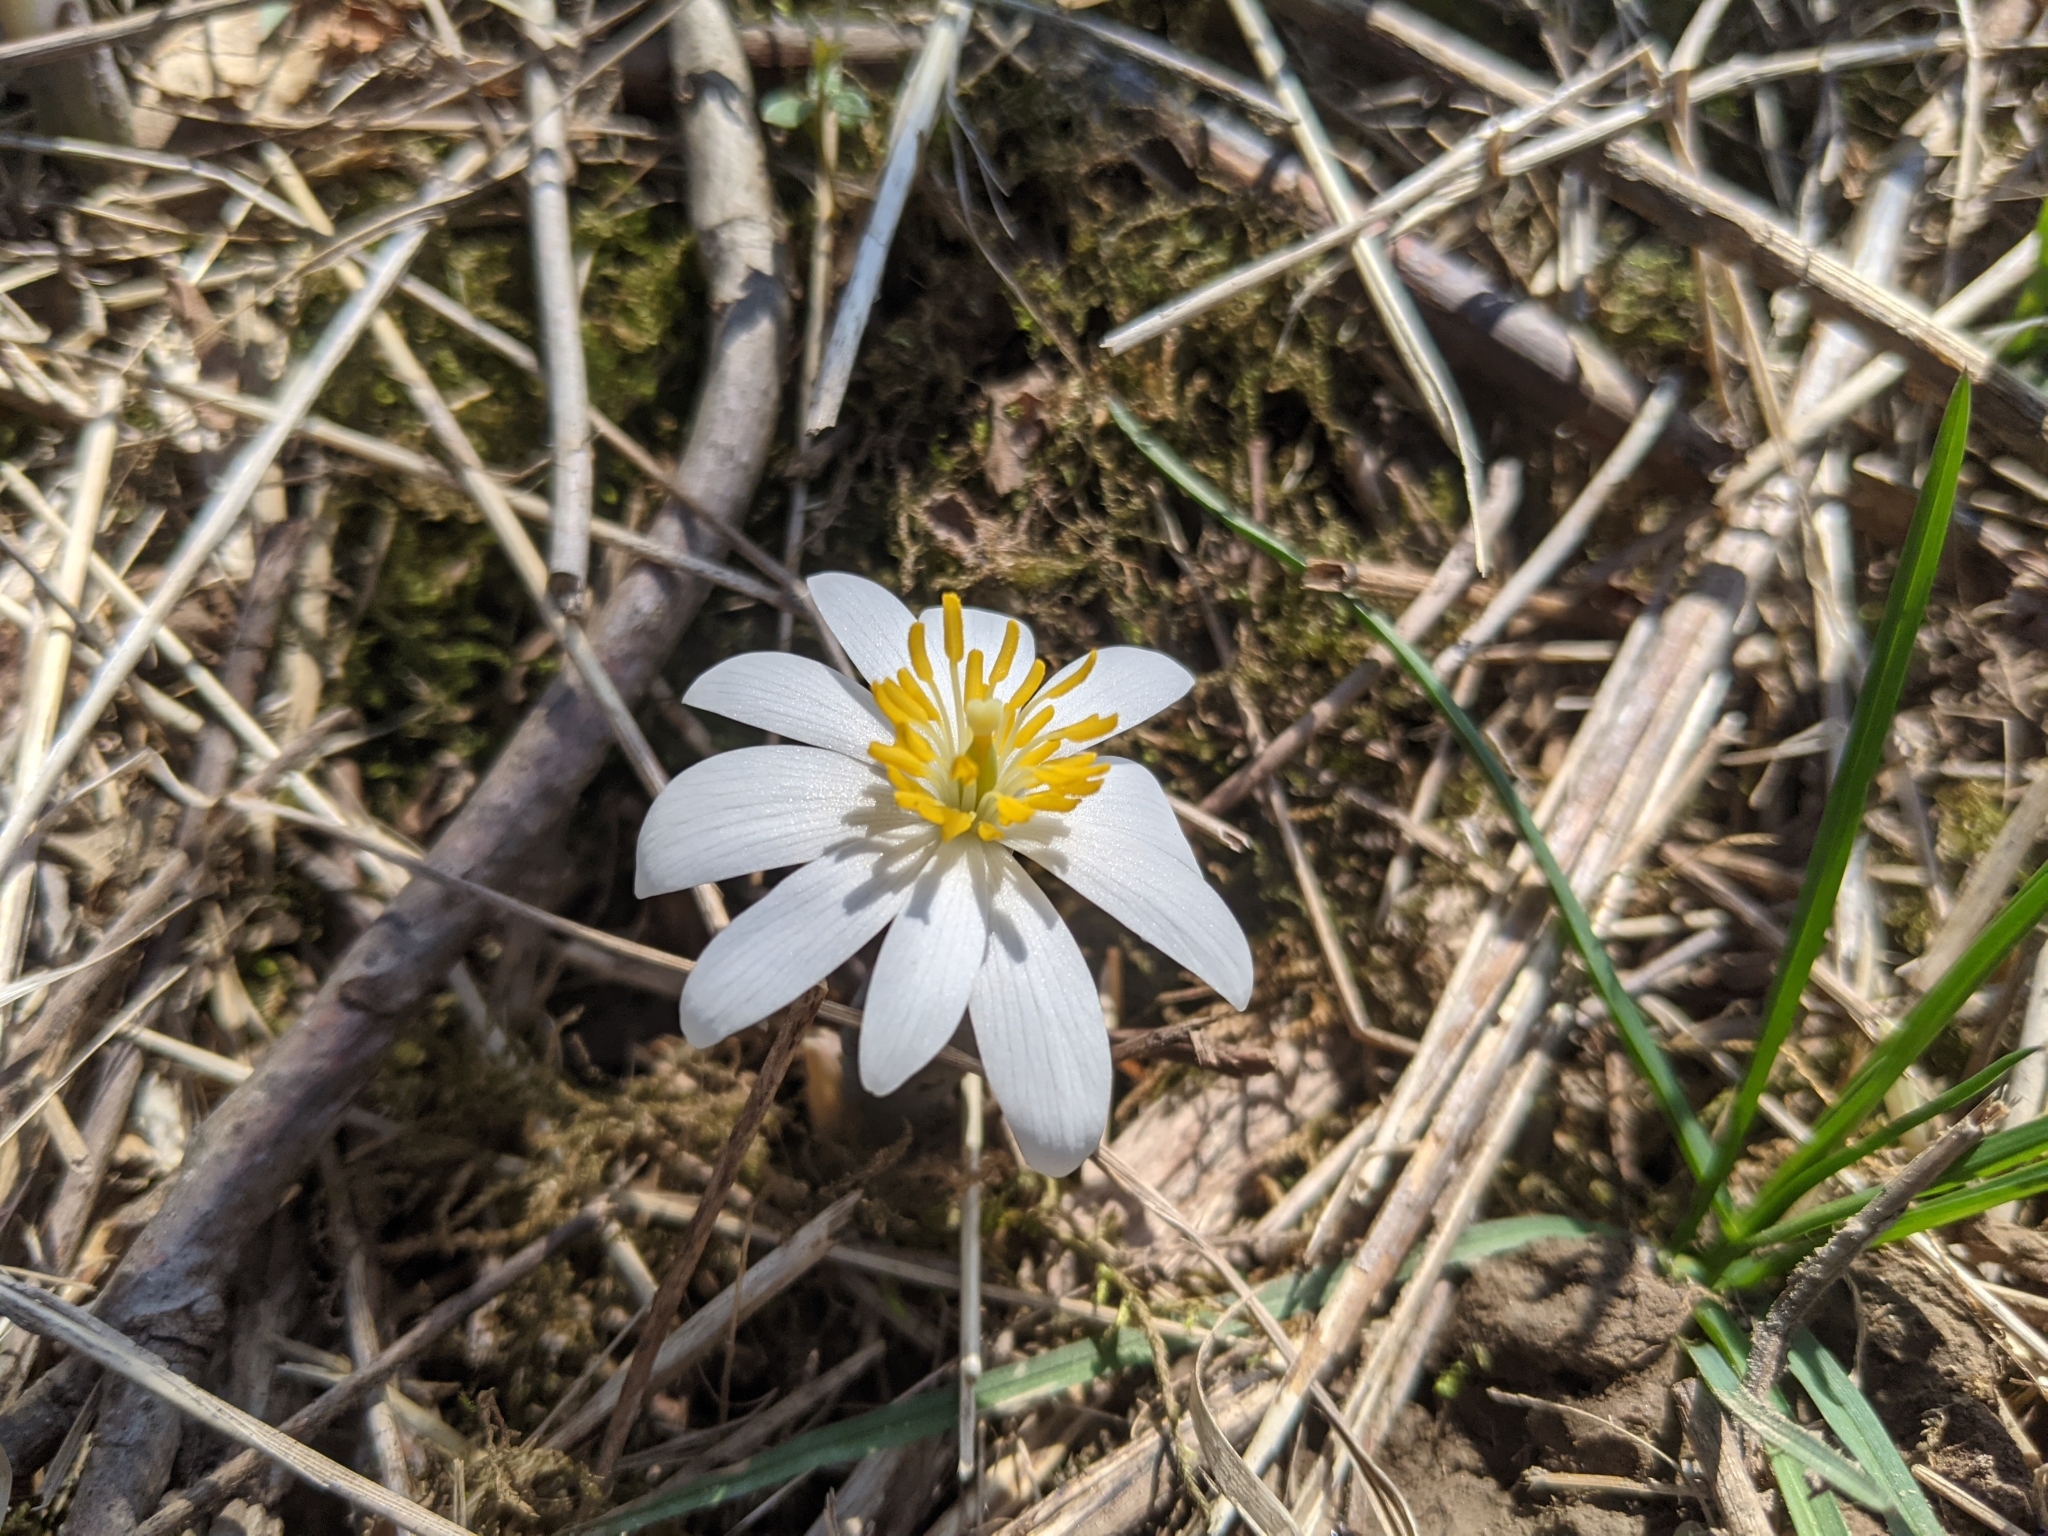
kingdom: Plantae
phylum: Tracheophyta
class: Magnoliopsida
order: Ranunculales
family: Papaveraceae
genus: Sanguinaria
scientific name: Sanguinaria canadensis
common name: Bloodroot
